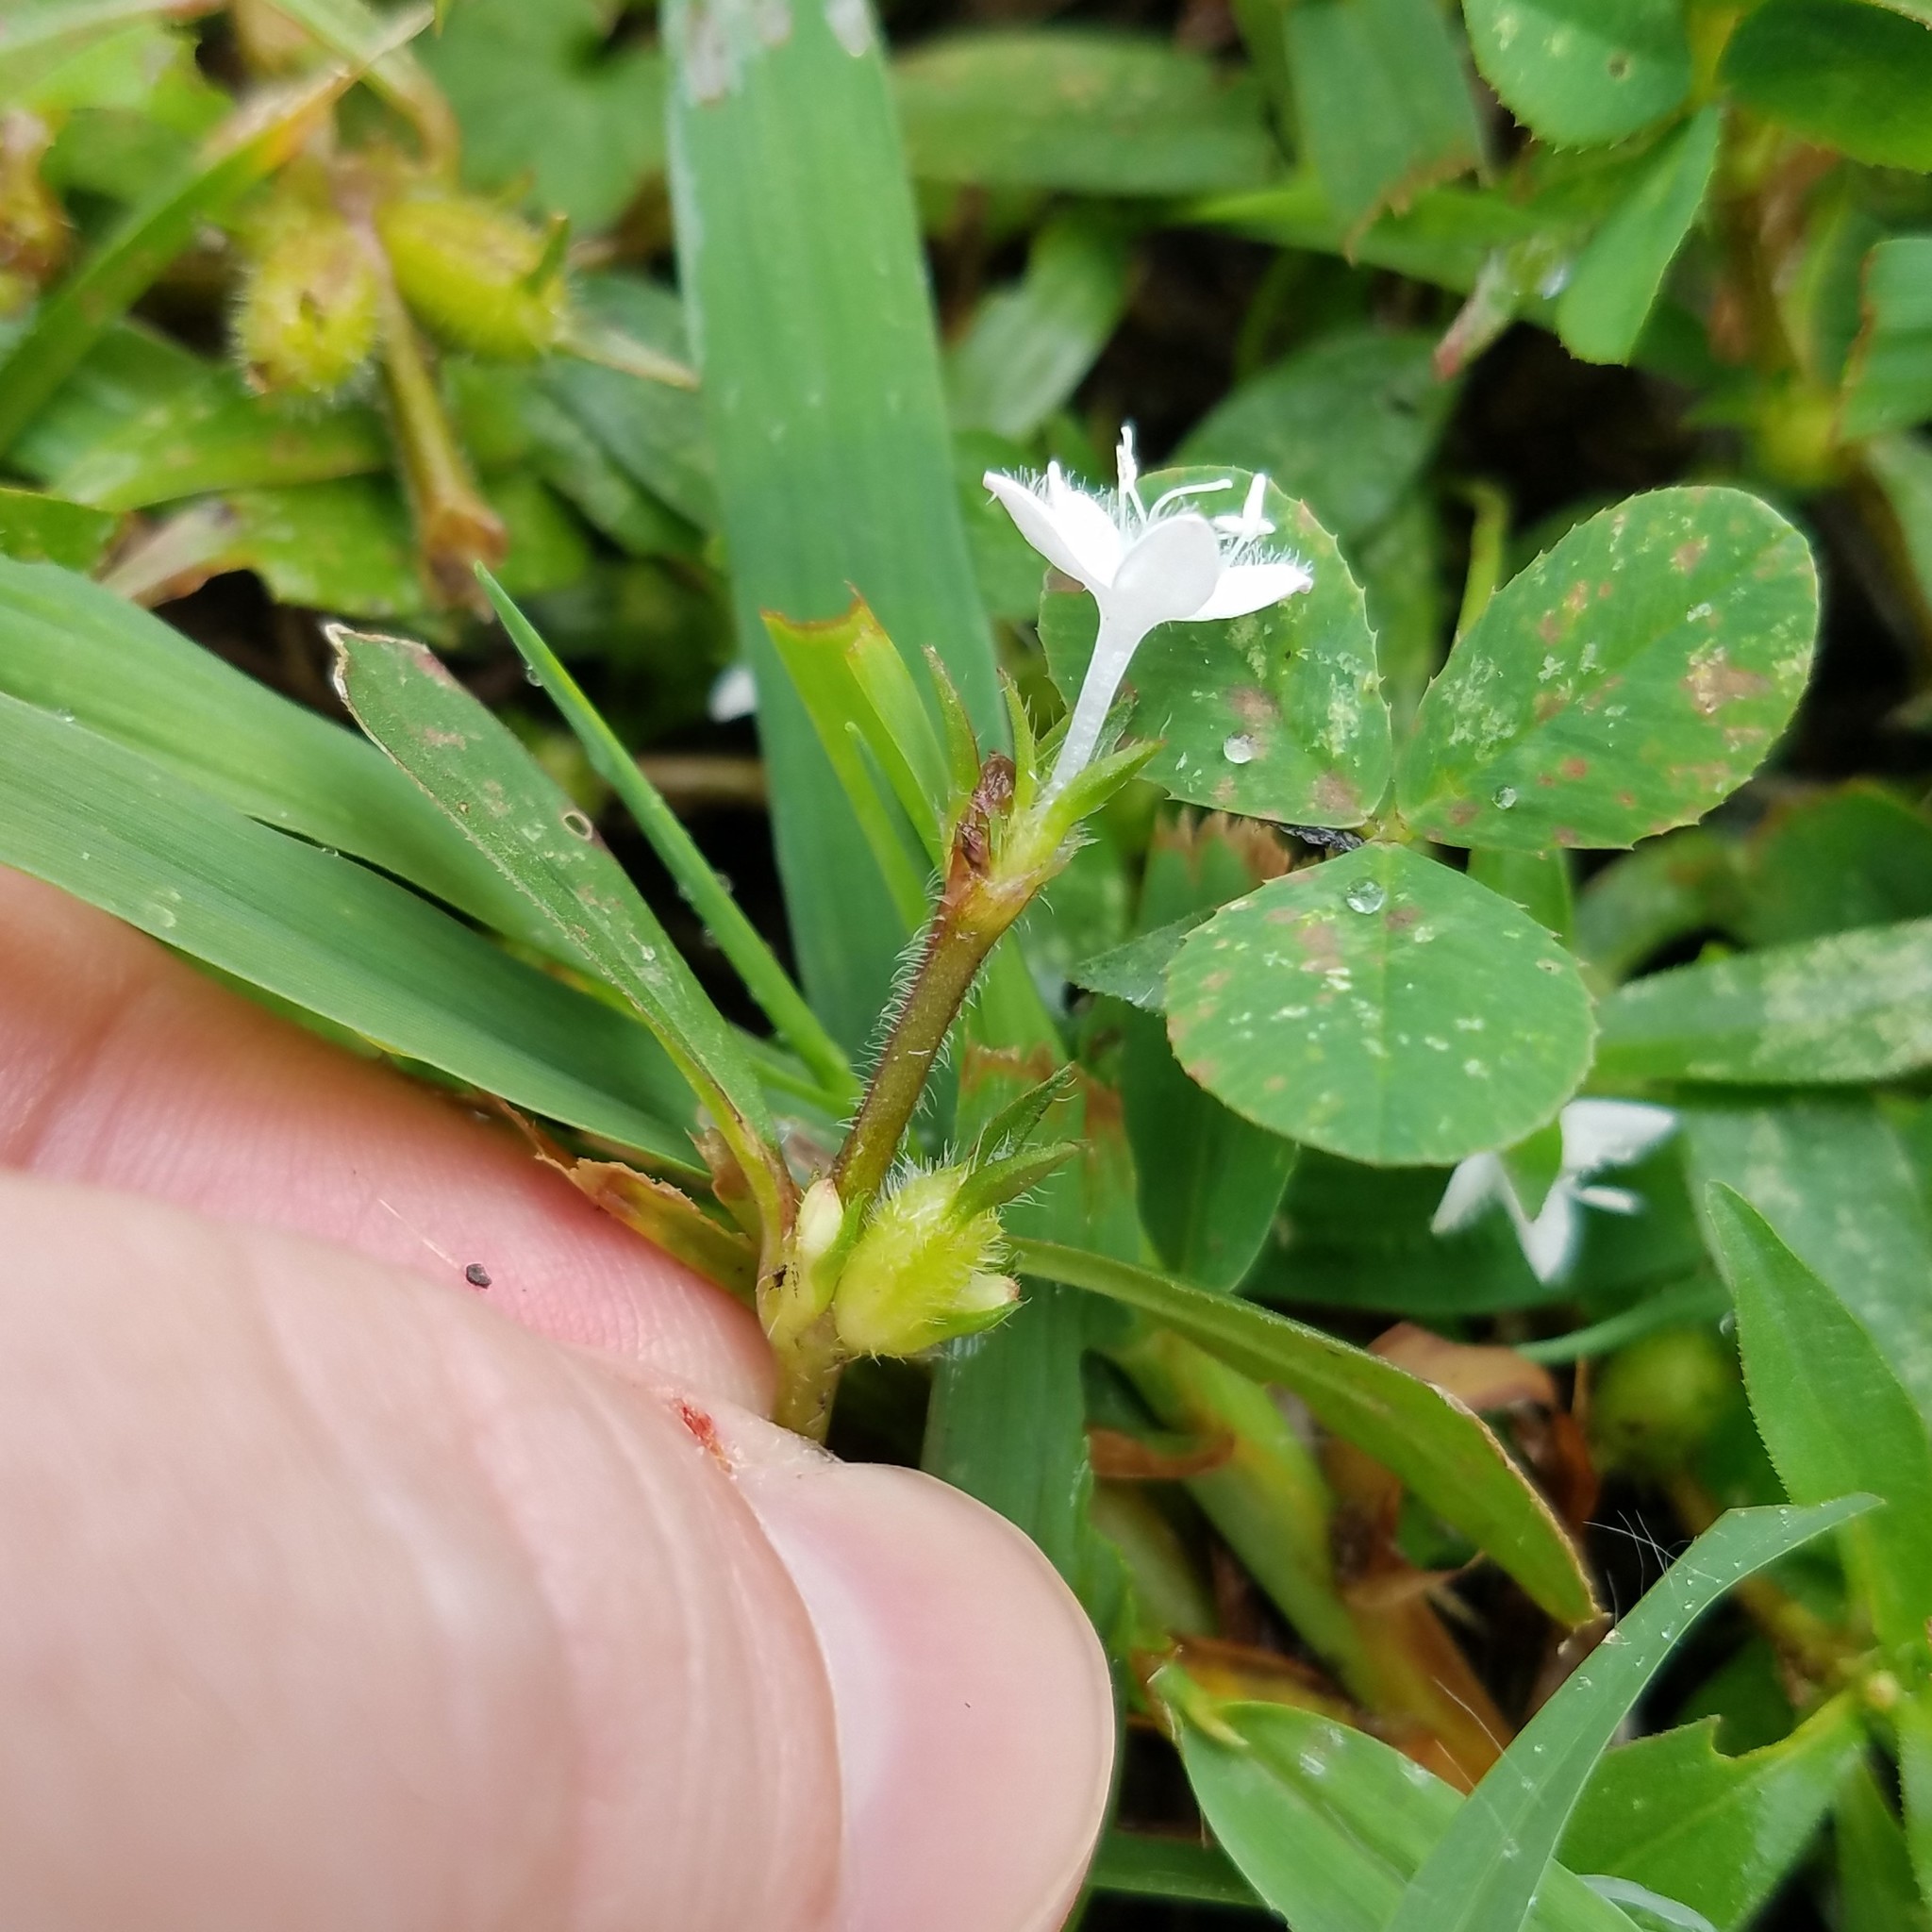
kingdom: Plantae
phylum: Tracheophyta
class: Magnoliopsida
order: Gentianales
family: Rubiaceae
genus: Diodia
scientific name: Diodia virginiana
